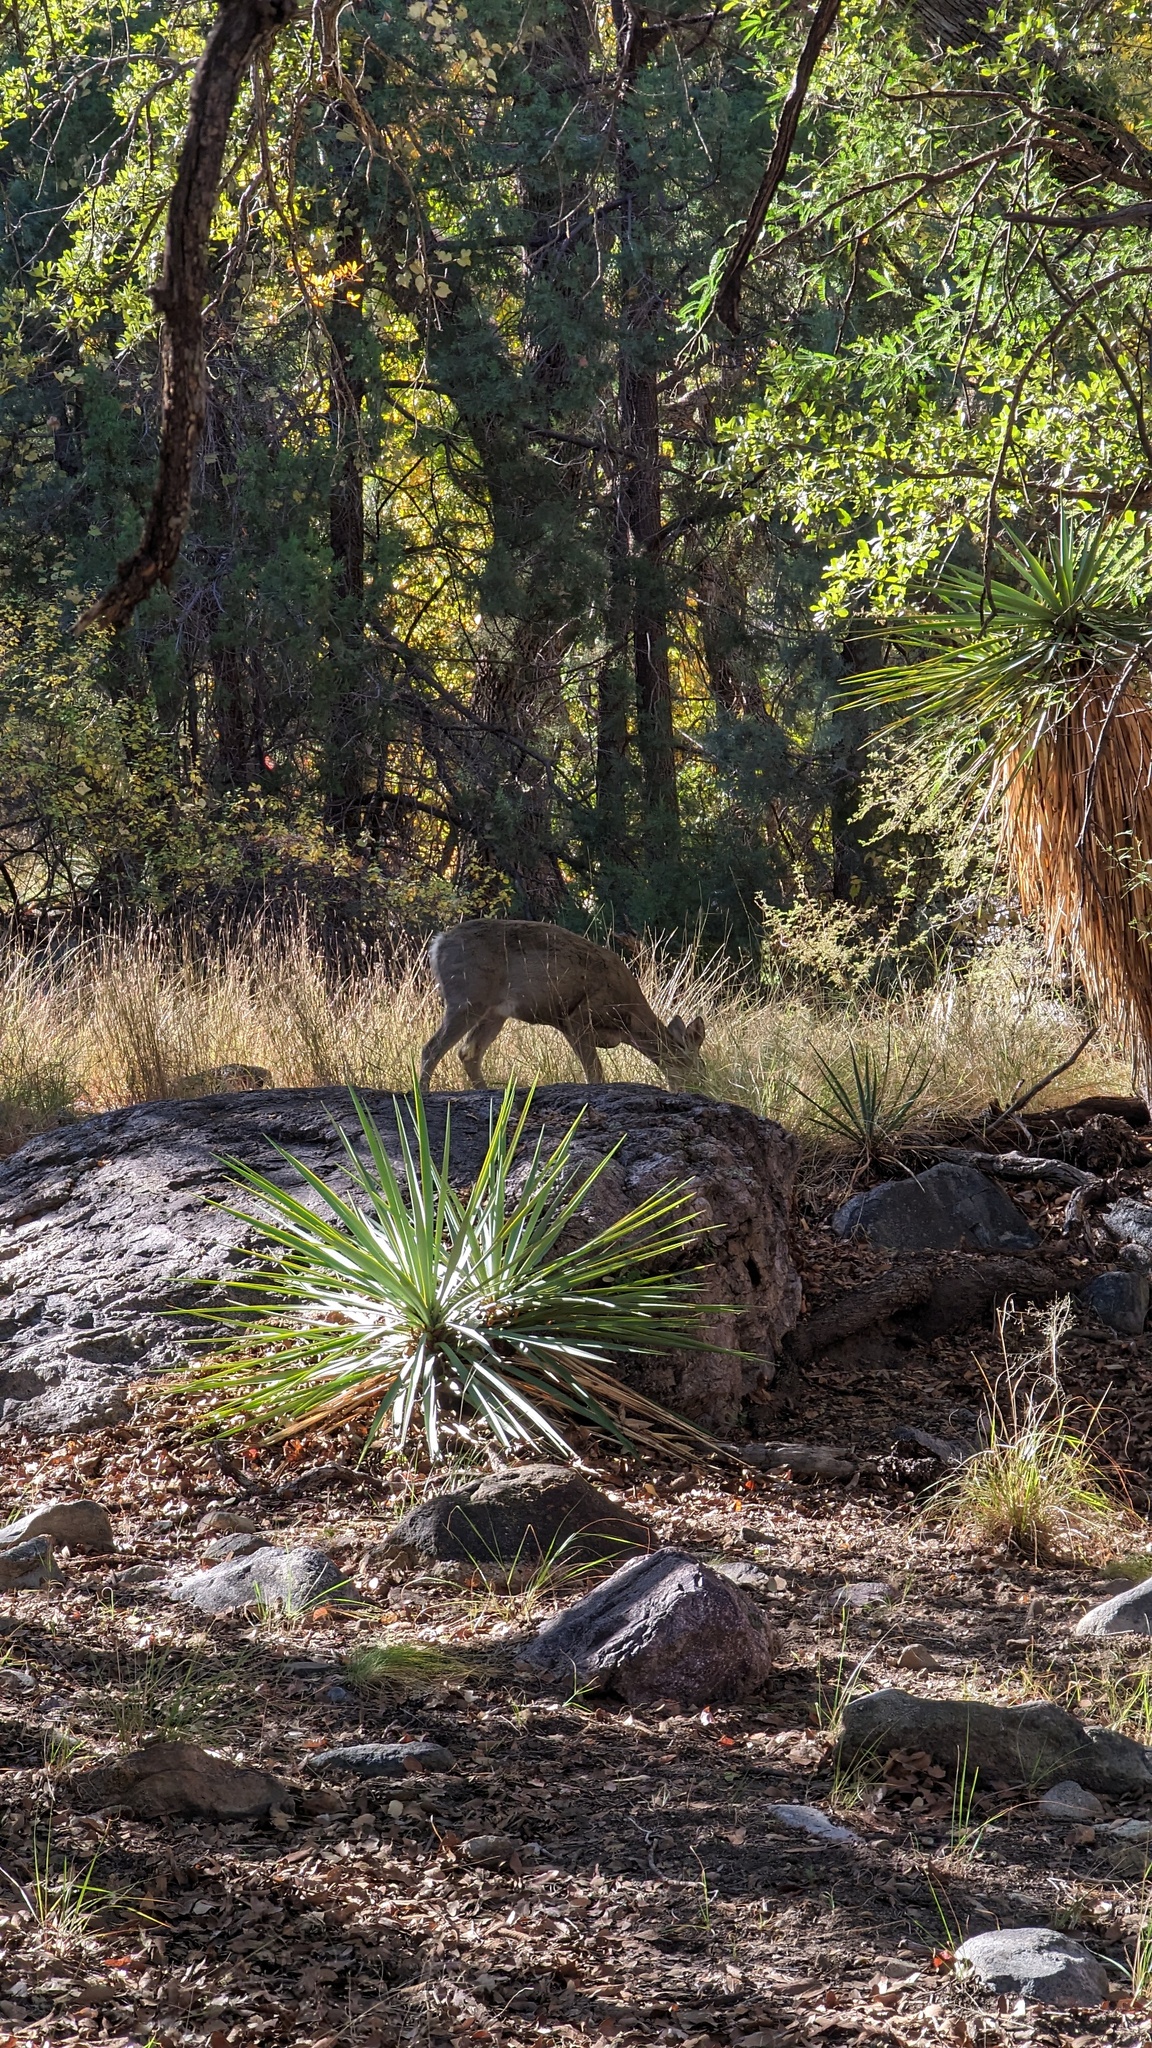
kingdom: Animalia
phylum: Chordata
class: Mammalia
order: Artiodactyla
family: Cervidae
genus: Odocoileus
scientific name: Odocoileus virginianus
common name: White-tailed deer
